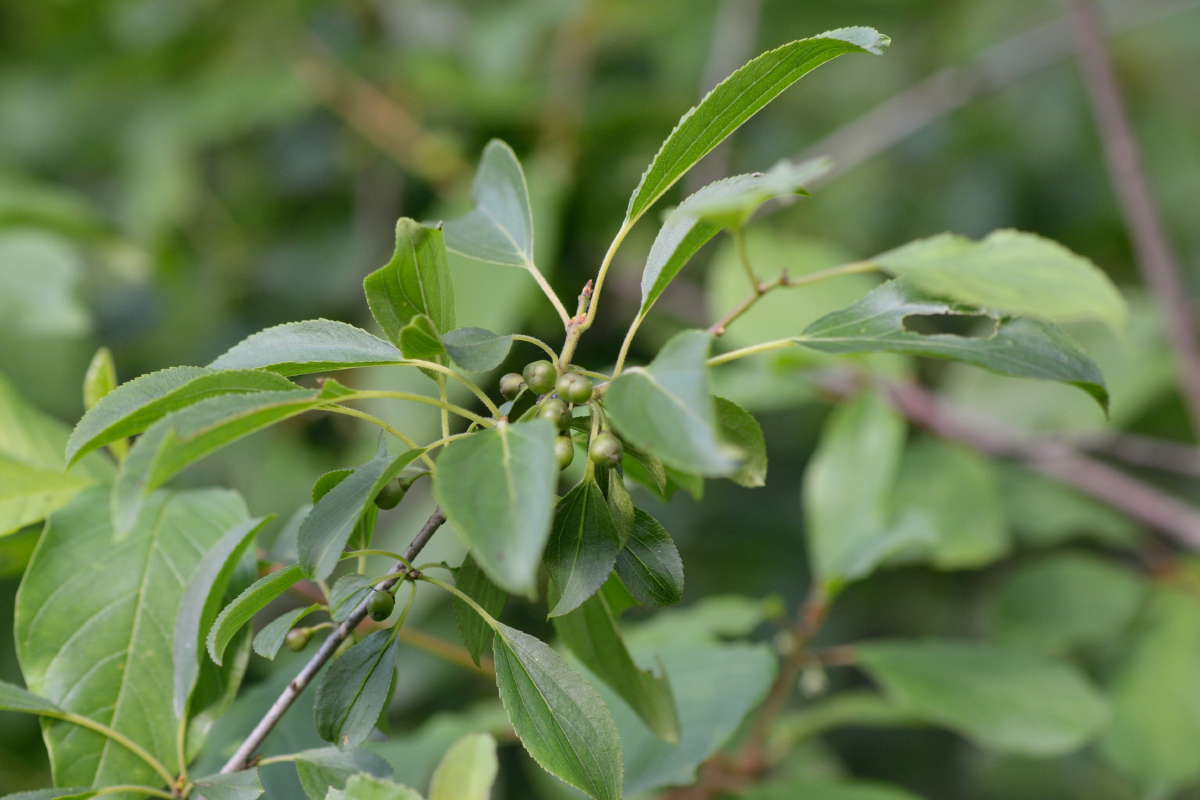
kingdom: Plantae
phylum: Tracheophyta
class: Magnoliopsida
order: Rosales
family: Rhamnaceae
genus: Rhamnus
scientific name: Rhamnus cathartica
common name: Common buckthorn
